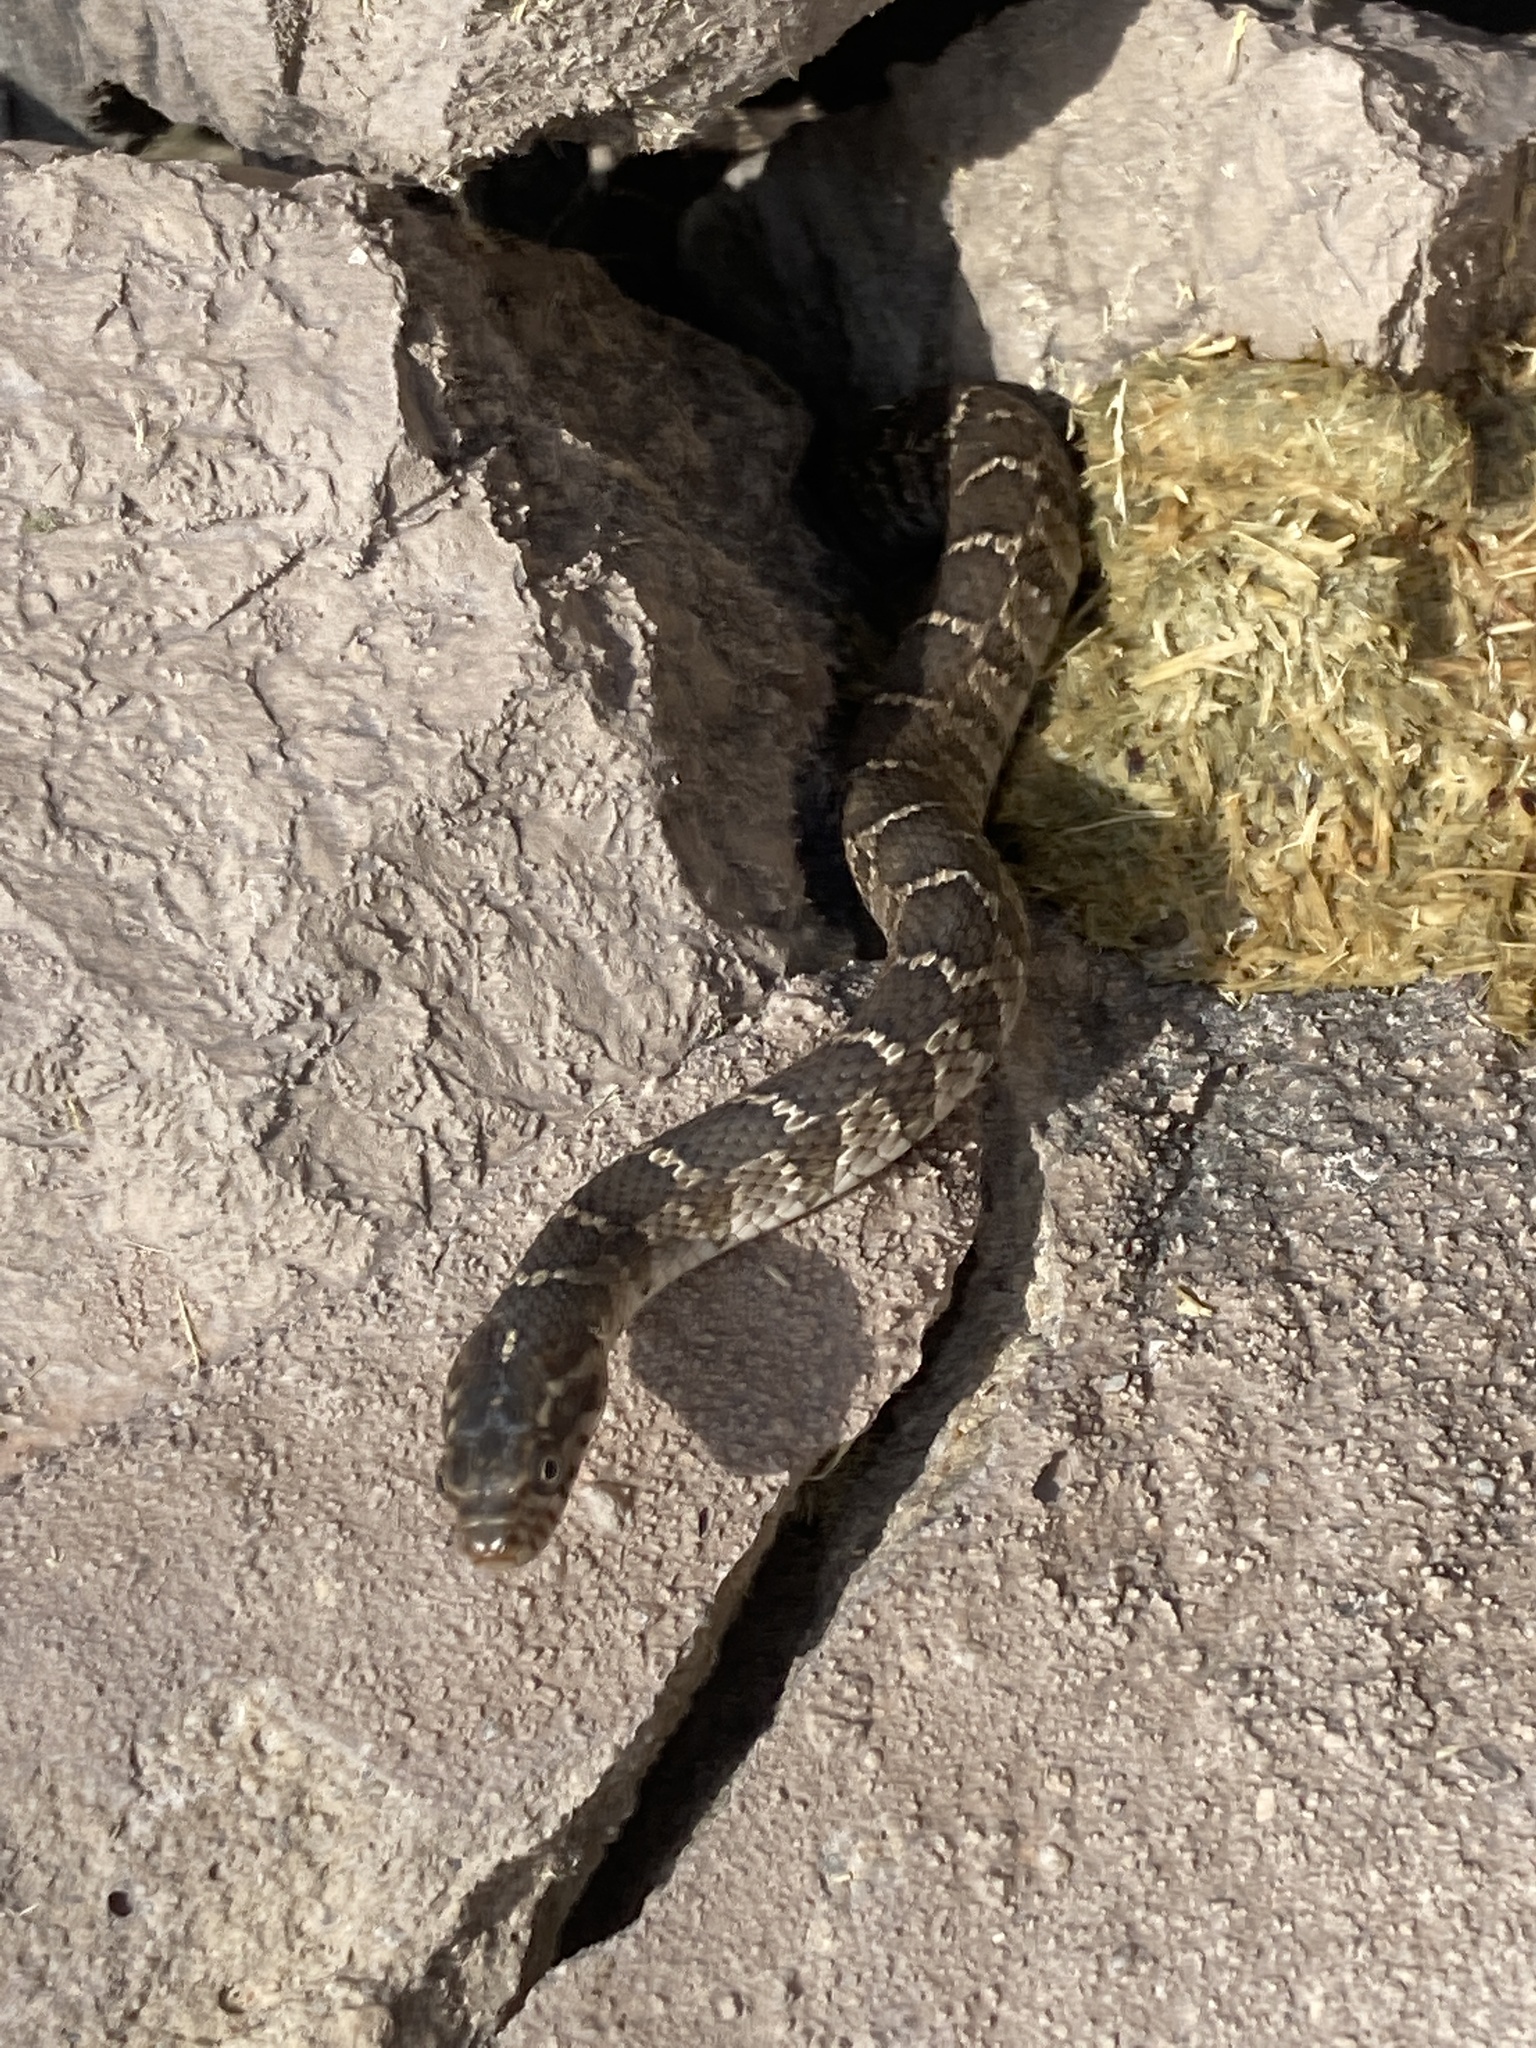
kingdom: Animalia
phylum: Chordata
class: Squamata
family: Colubridae
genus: Nerodia
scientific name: Nerodia erythrogaster
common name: Plainbelly water snake
